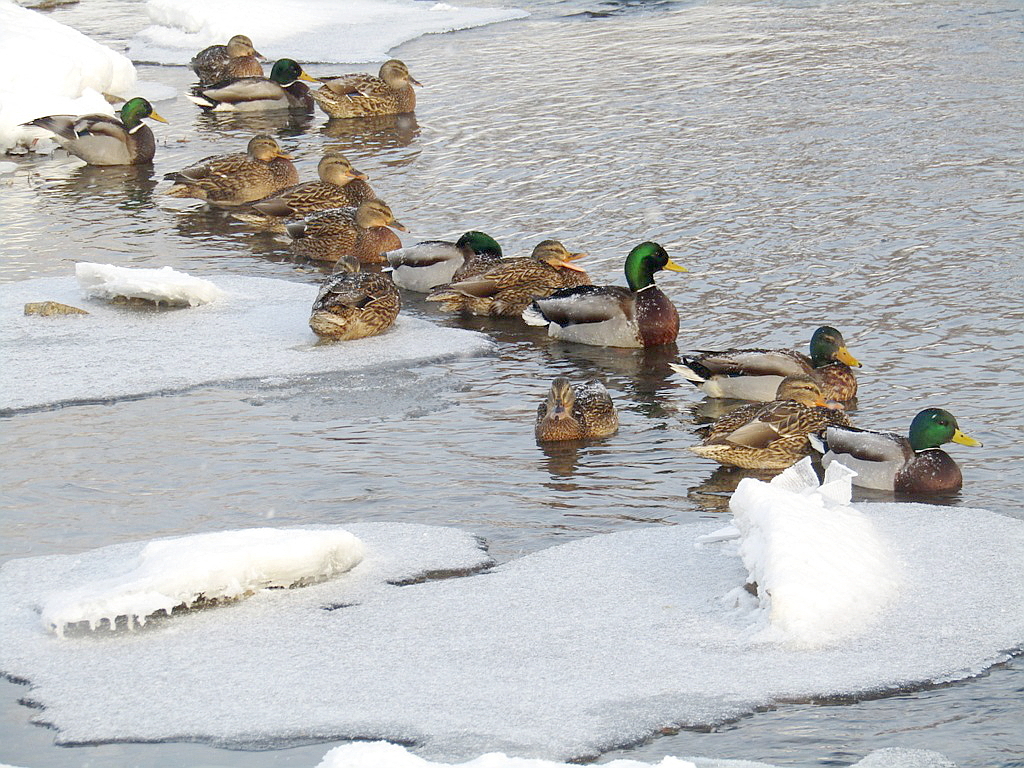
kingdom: Animalia
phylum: Chordata
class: Aves
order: Anseriformes
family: Anatidae
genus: Anas
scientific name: Anas platyrhynchos
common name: Mallard
